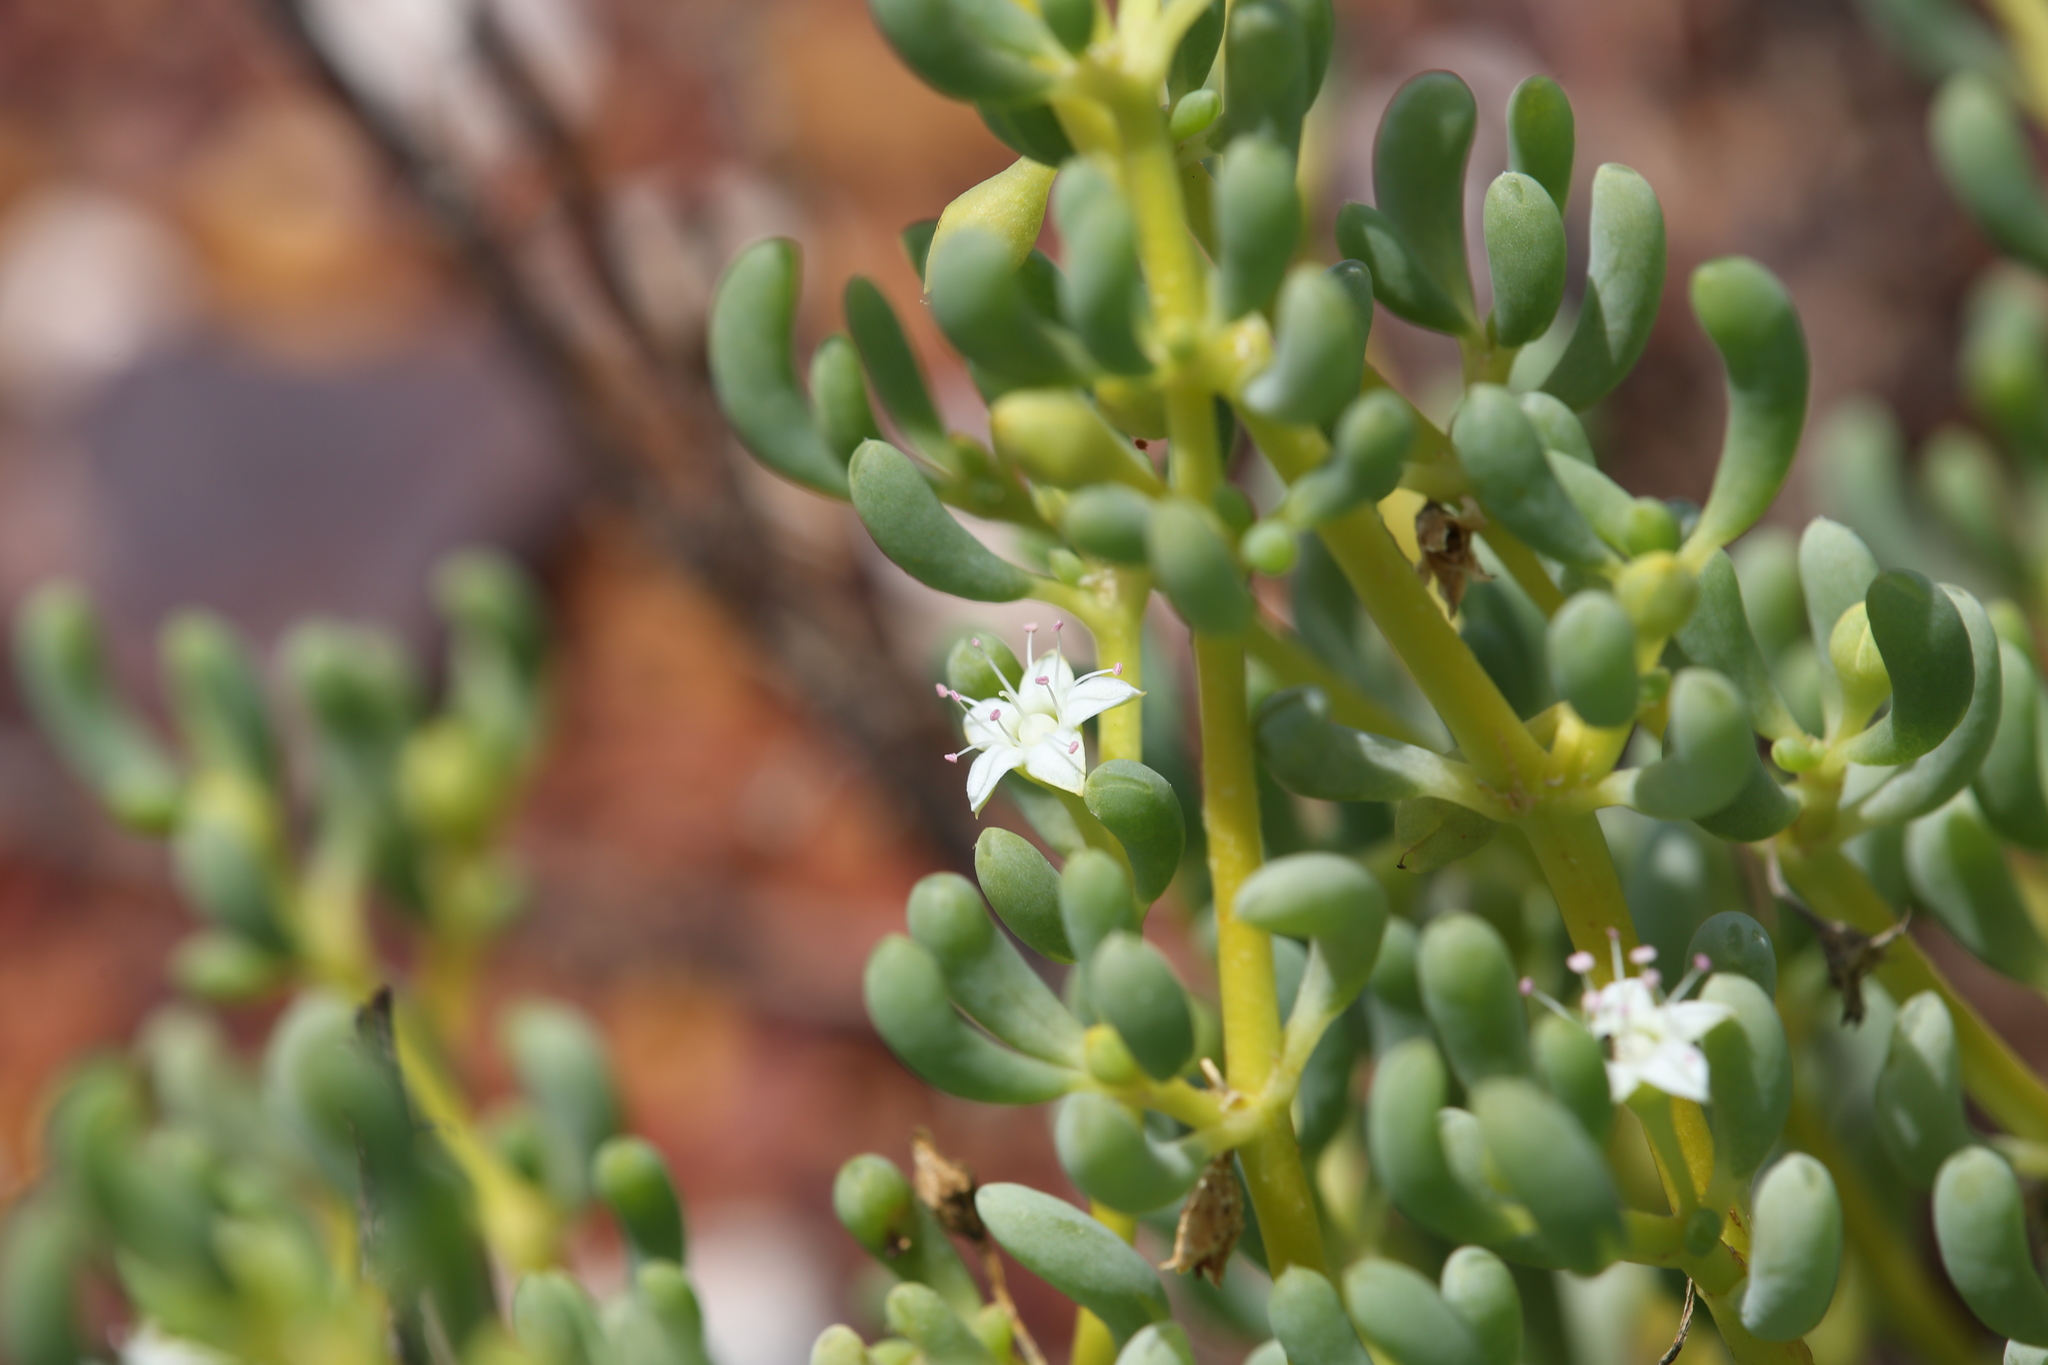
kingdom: Plantae
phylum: Tracheophyta
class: Magnoliopsida
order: Caryophyllales
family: Aizoaceae
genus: Trianthema
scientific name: Trianthema turgidifolium
